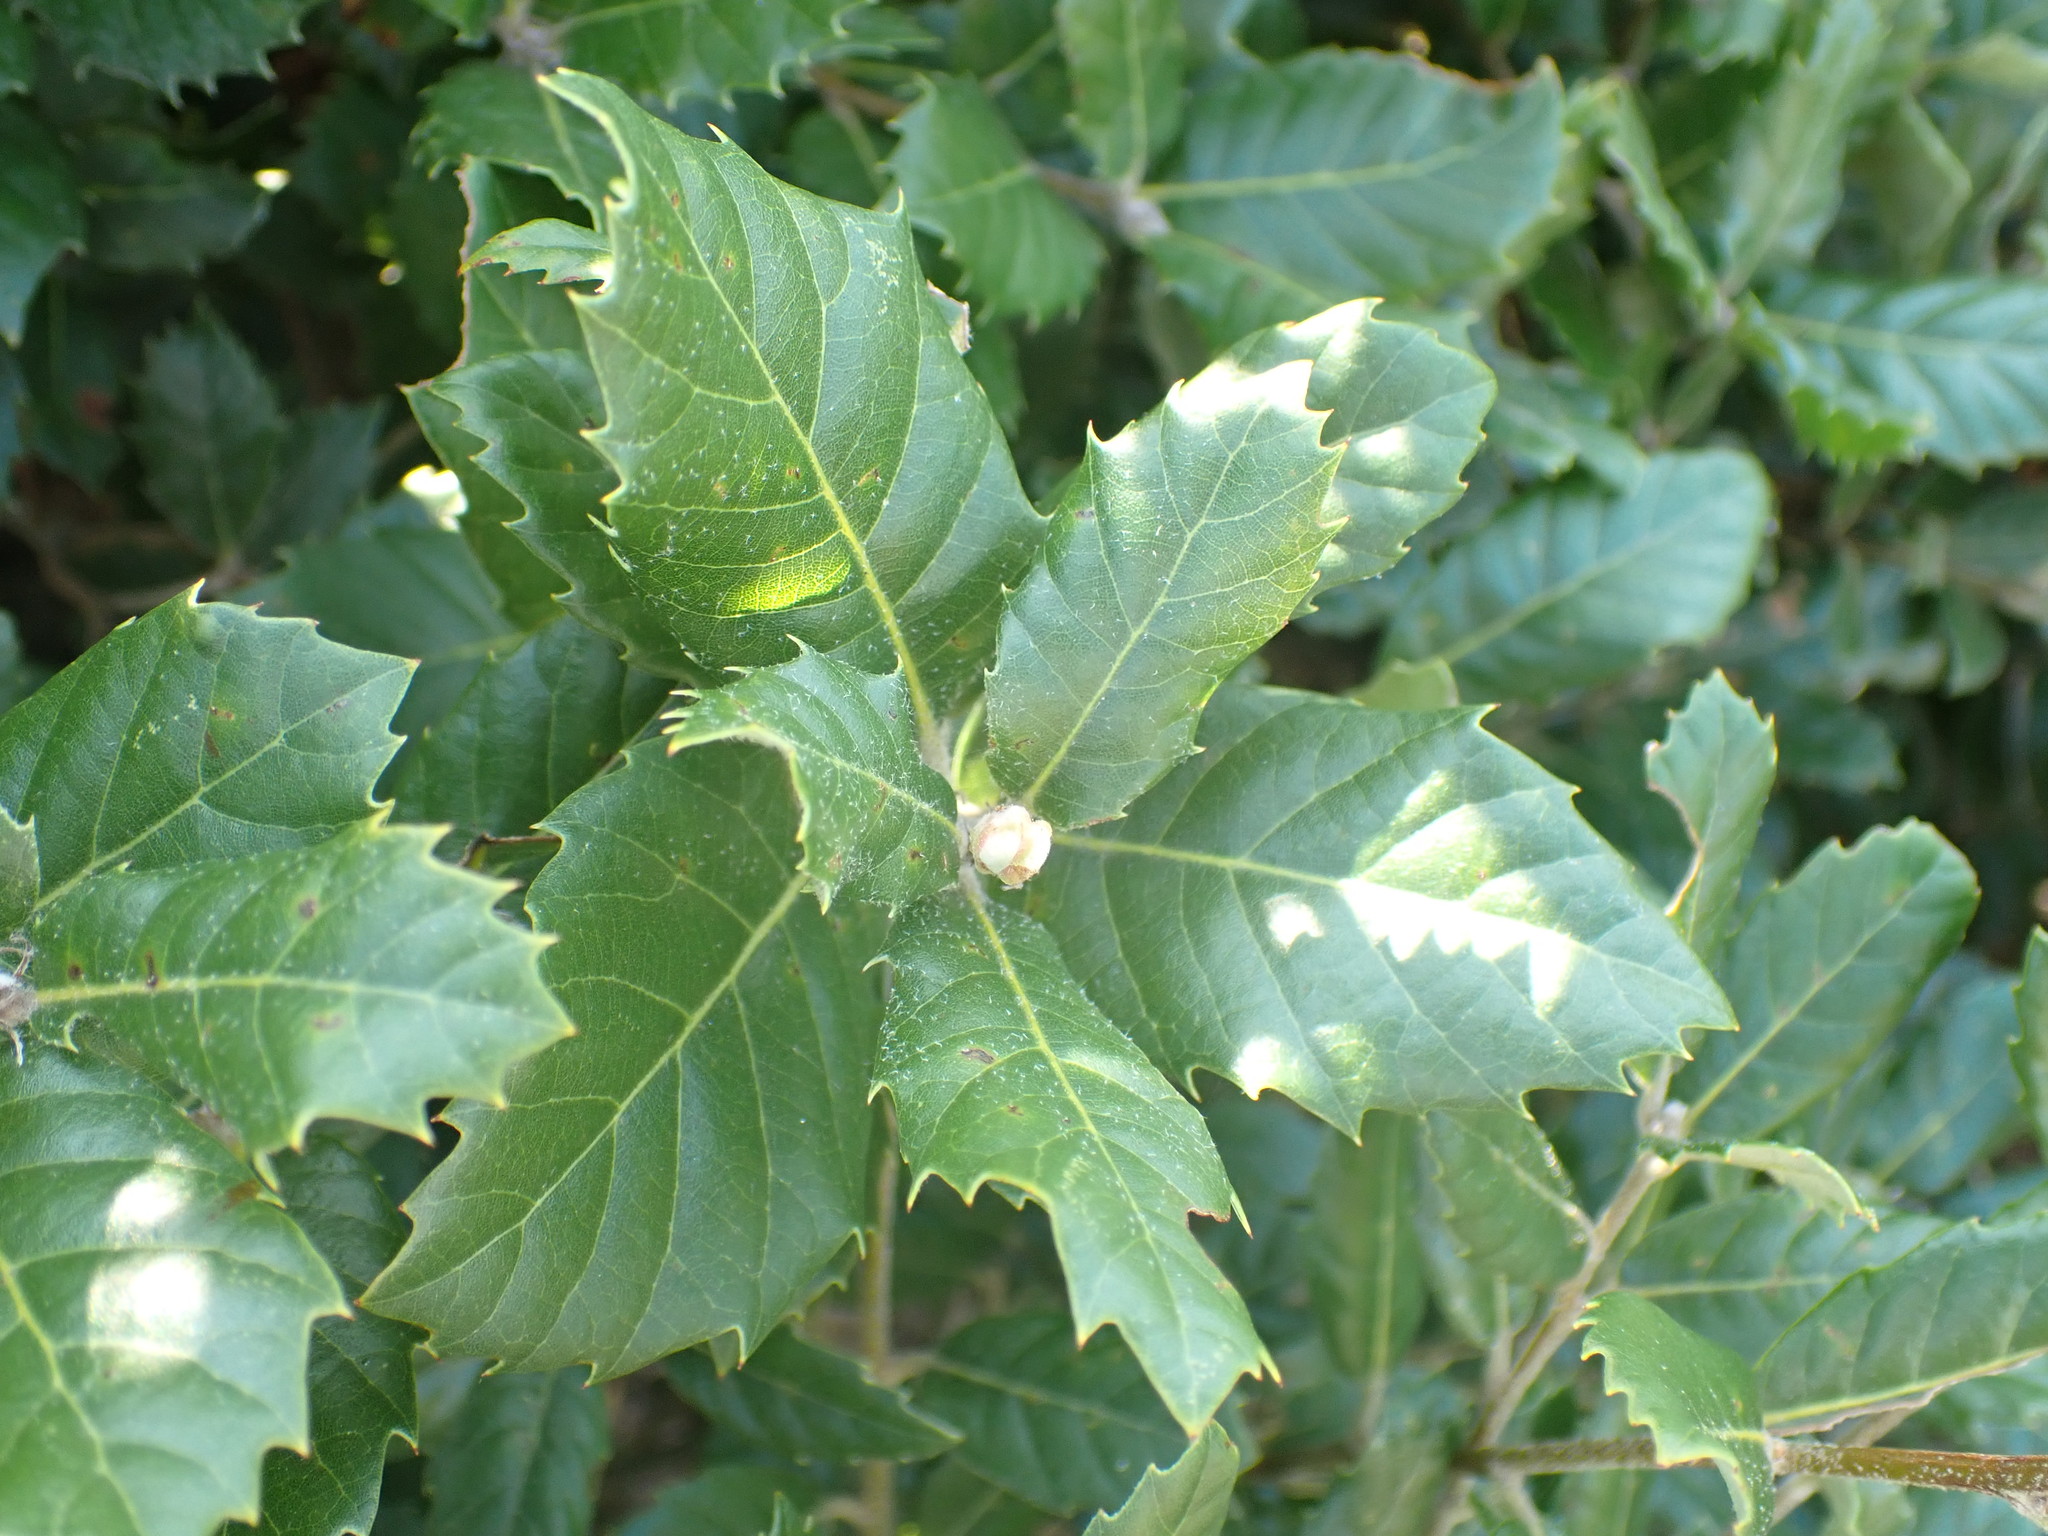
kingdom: Plantae
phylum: Tracheophyta
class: Magnoliopsida
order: Fagales
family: Fagaceae
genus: Quercus
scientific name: Quercus ilex
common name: Evergreen oak
